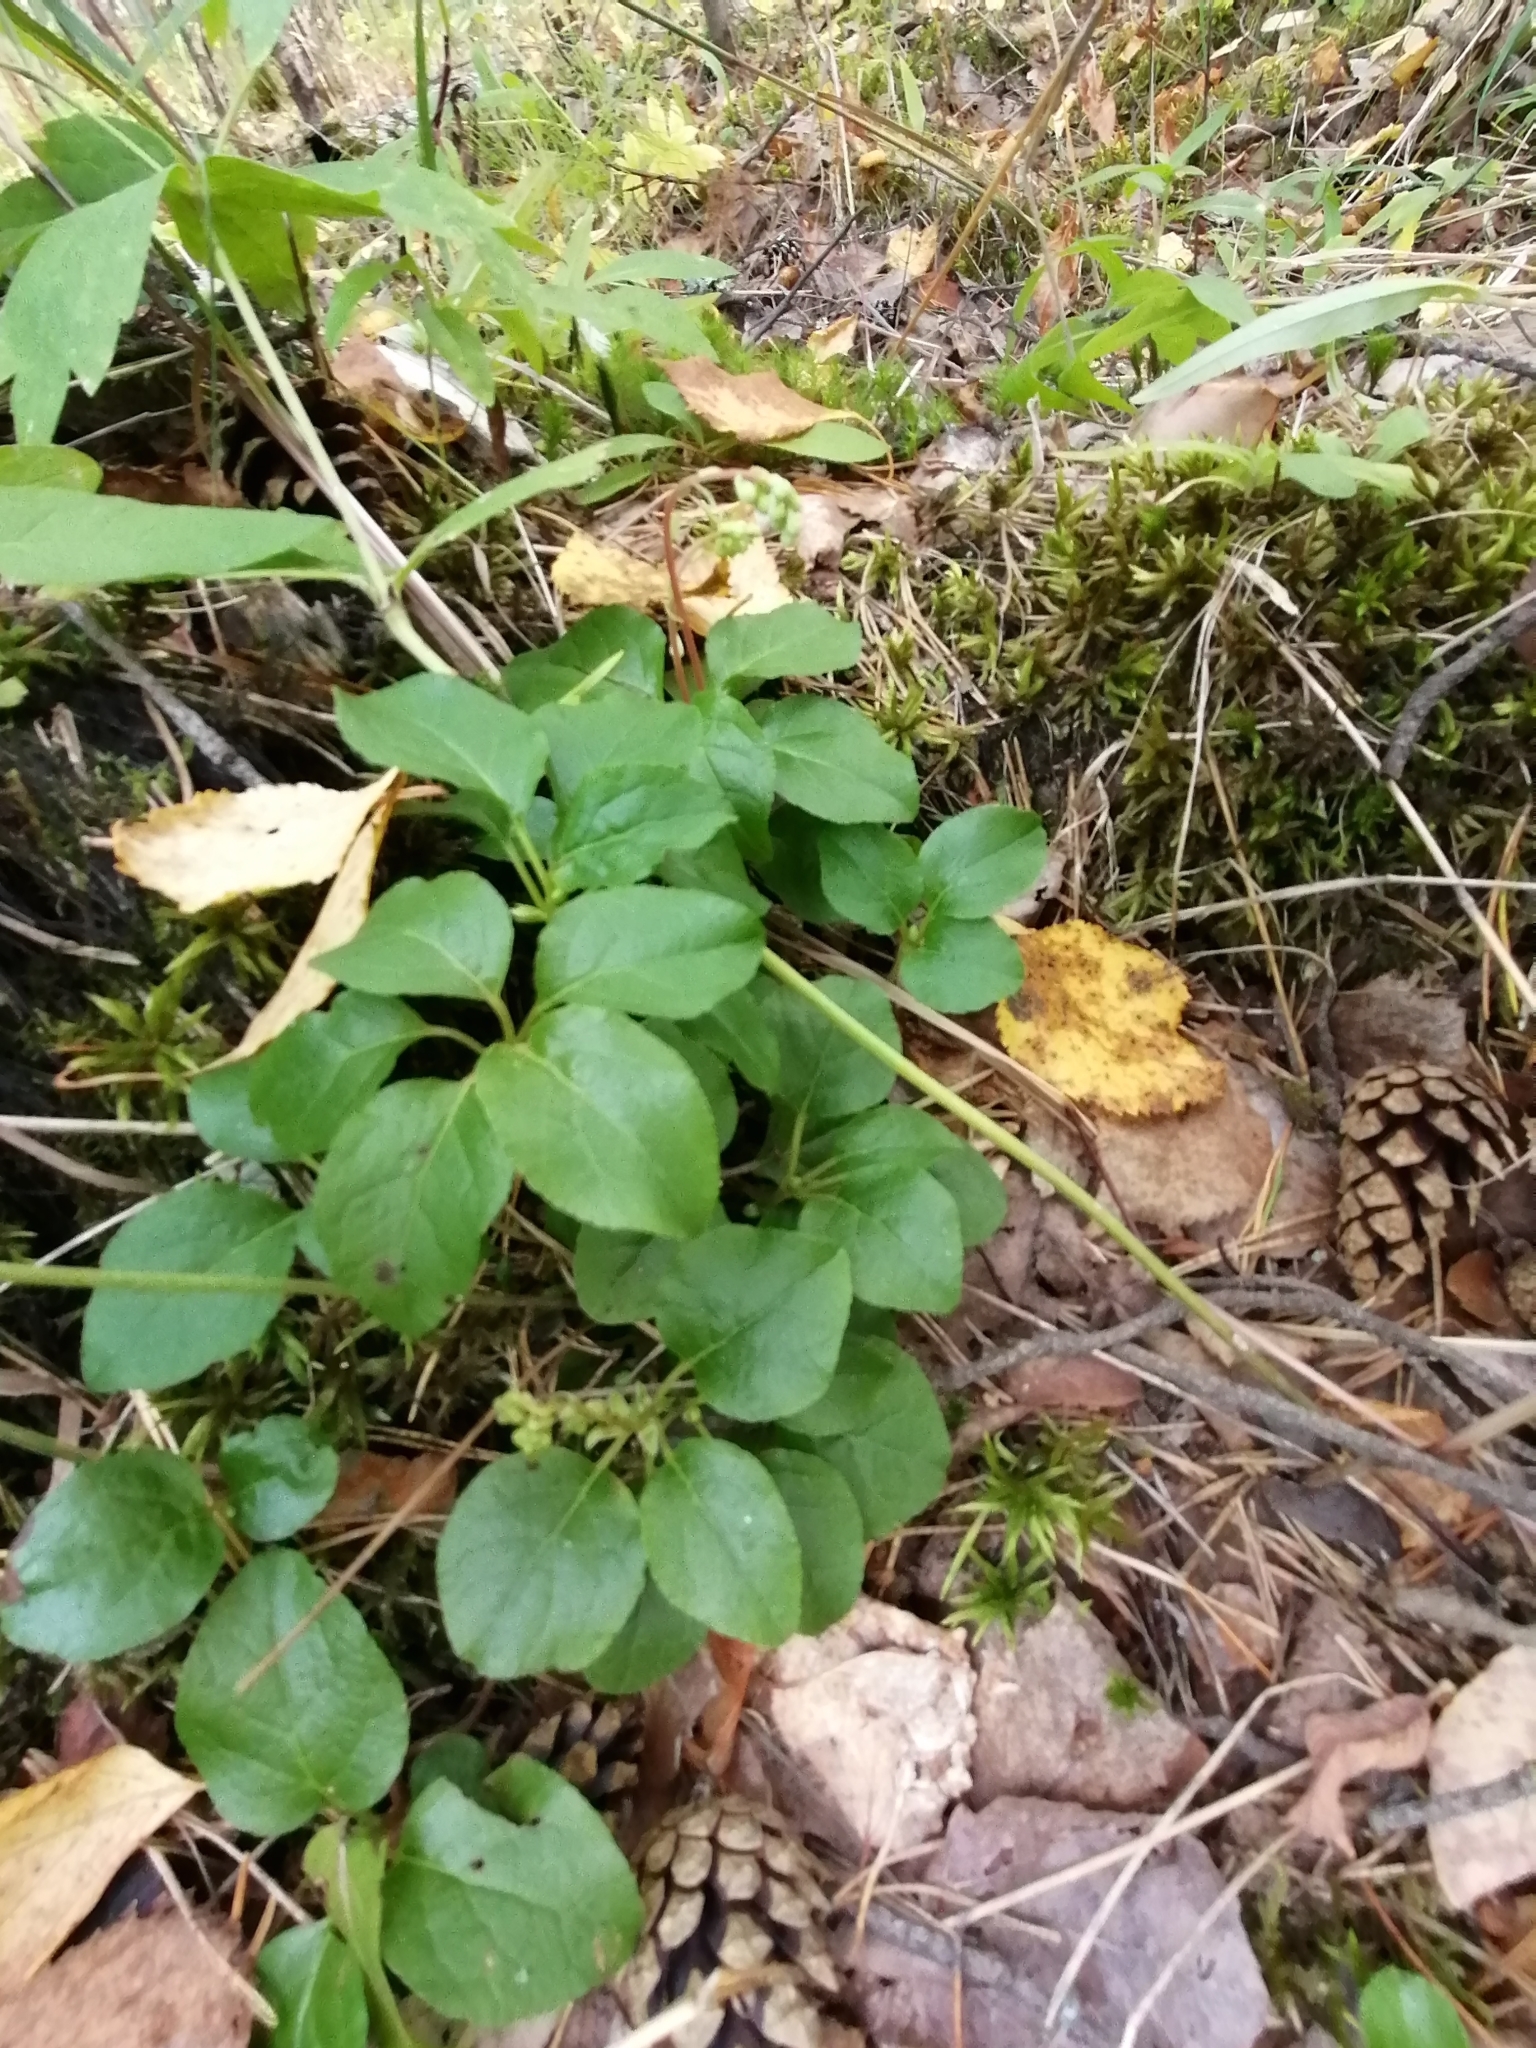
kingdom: Plantae
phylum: Tracheophyta
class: Magnoliopsida
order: Ericales
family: Ericaceae
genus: Orthilia
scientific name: Orthilia secunda
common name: One-sided orthilia
